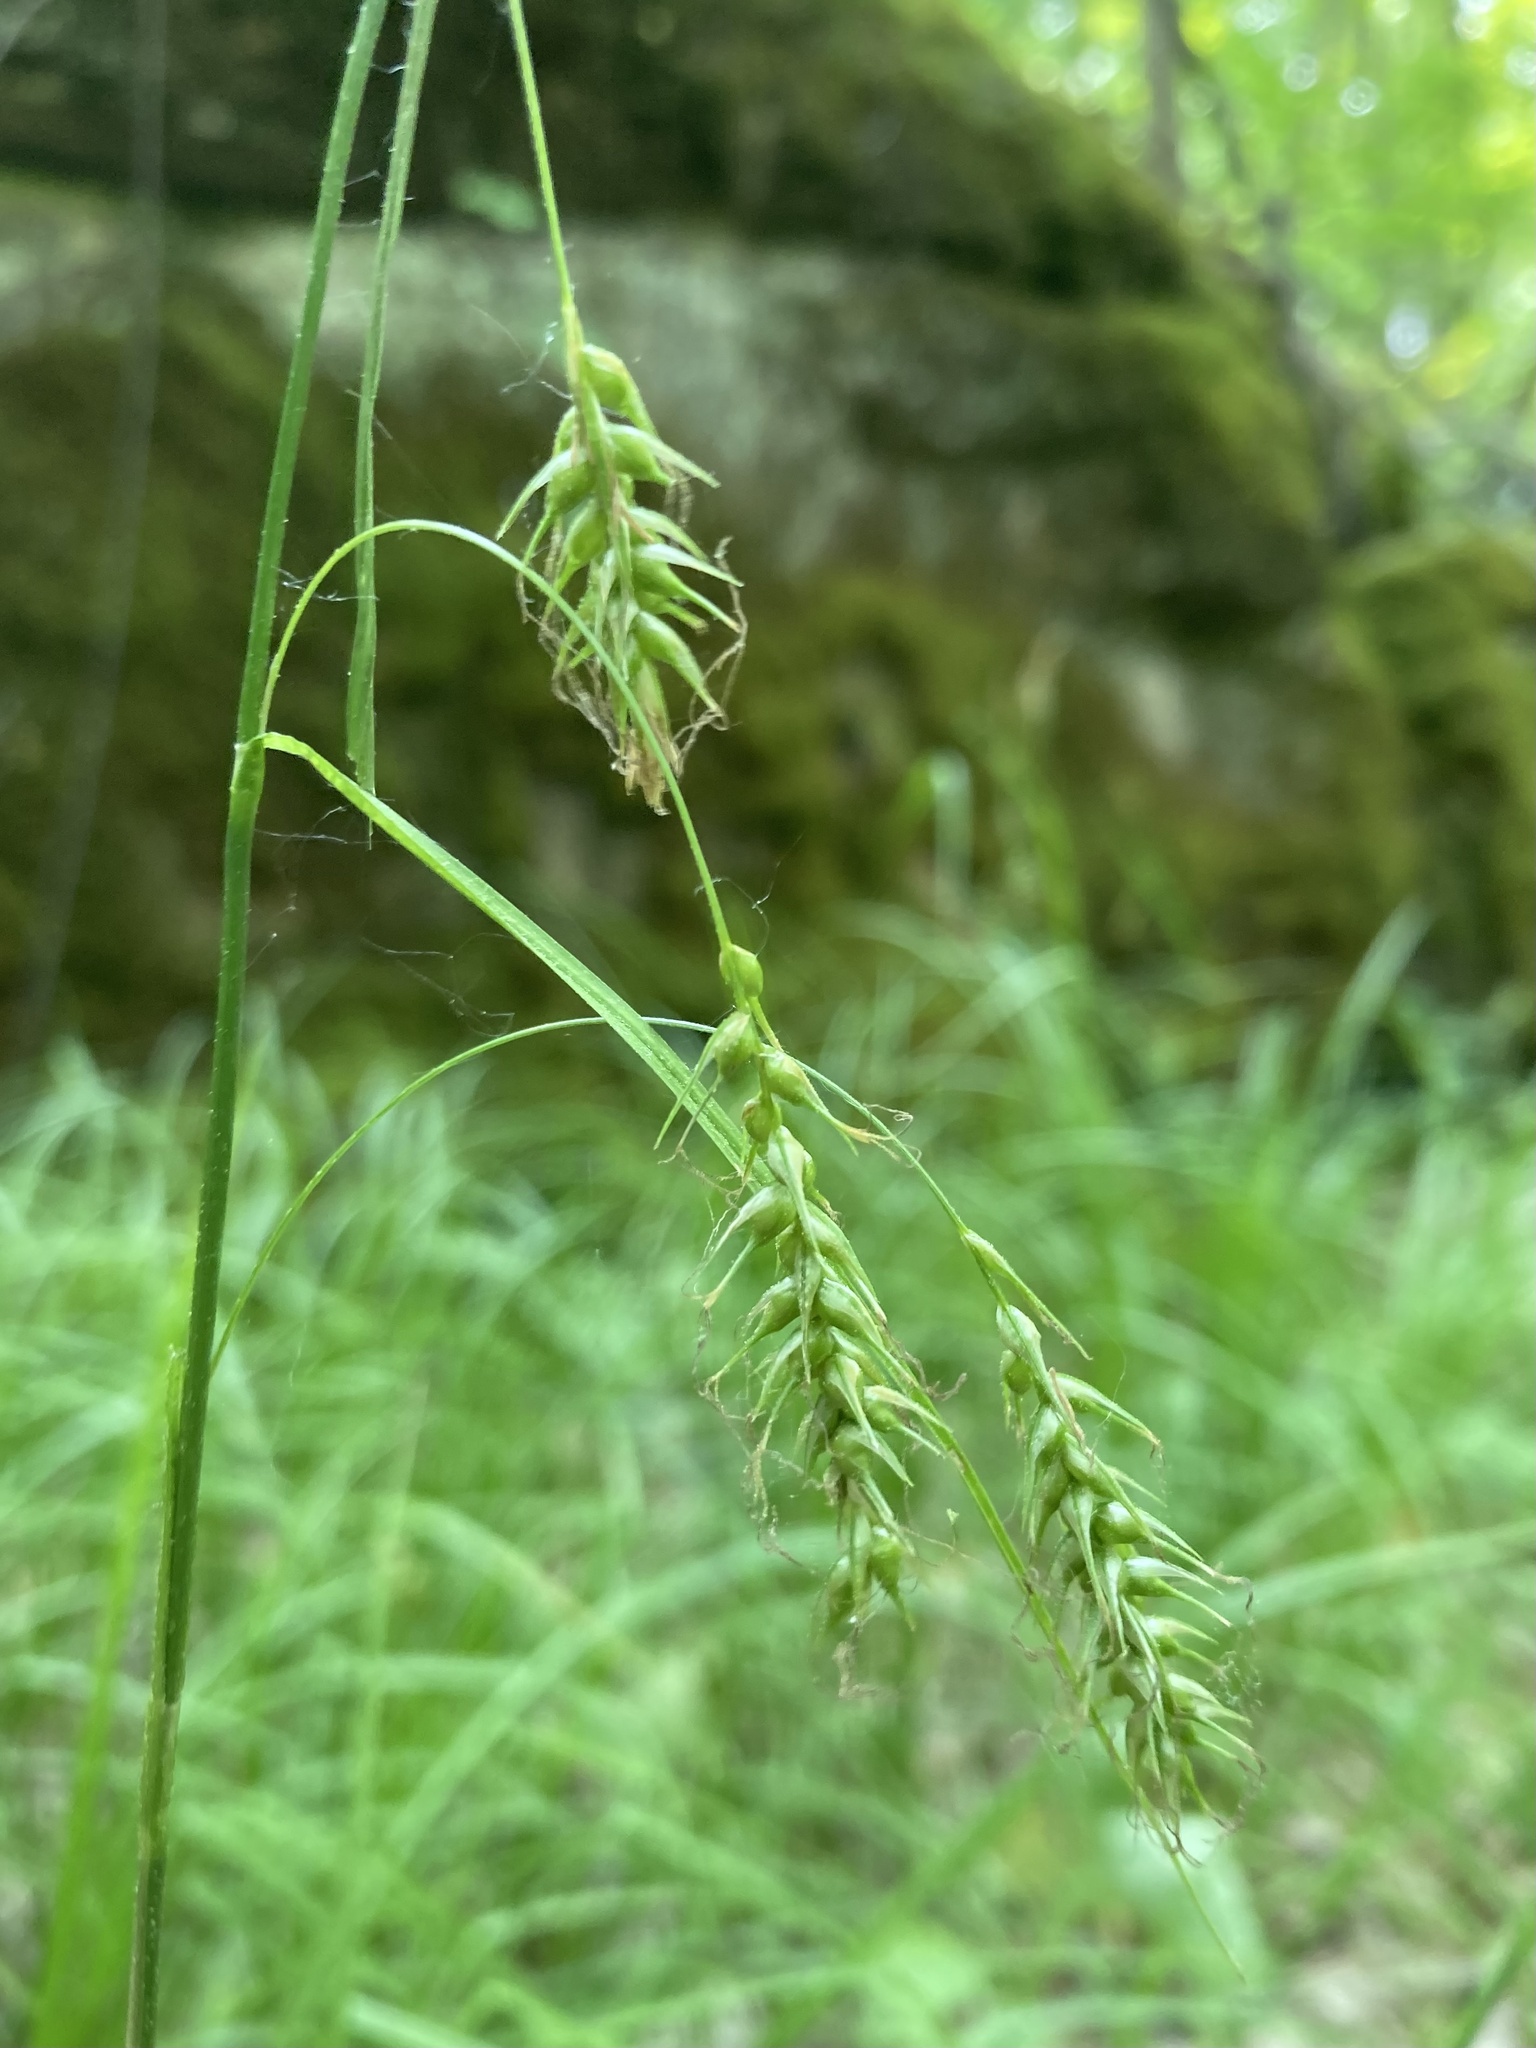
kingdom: Plantae
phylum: Tracheophyta
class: Liliopsida
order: Poales
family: Cyperaceae
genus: Carex
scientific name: Carex sprengelii
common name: Long-beaked sedge
